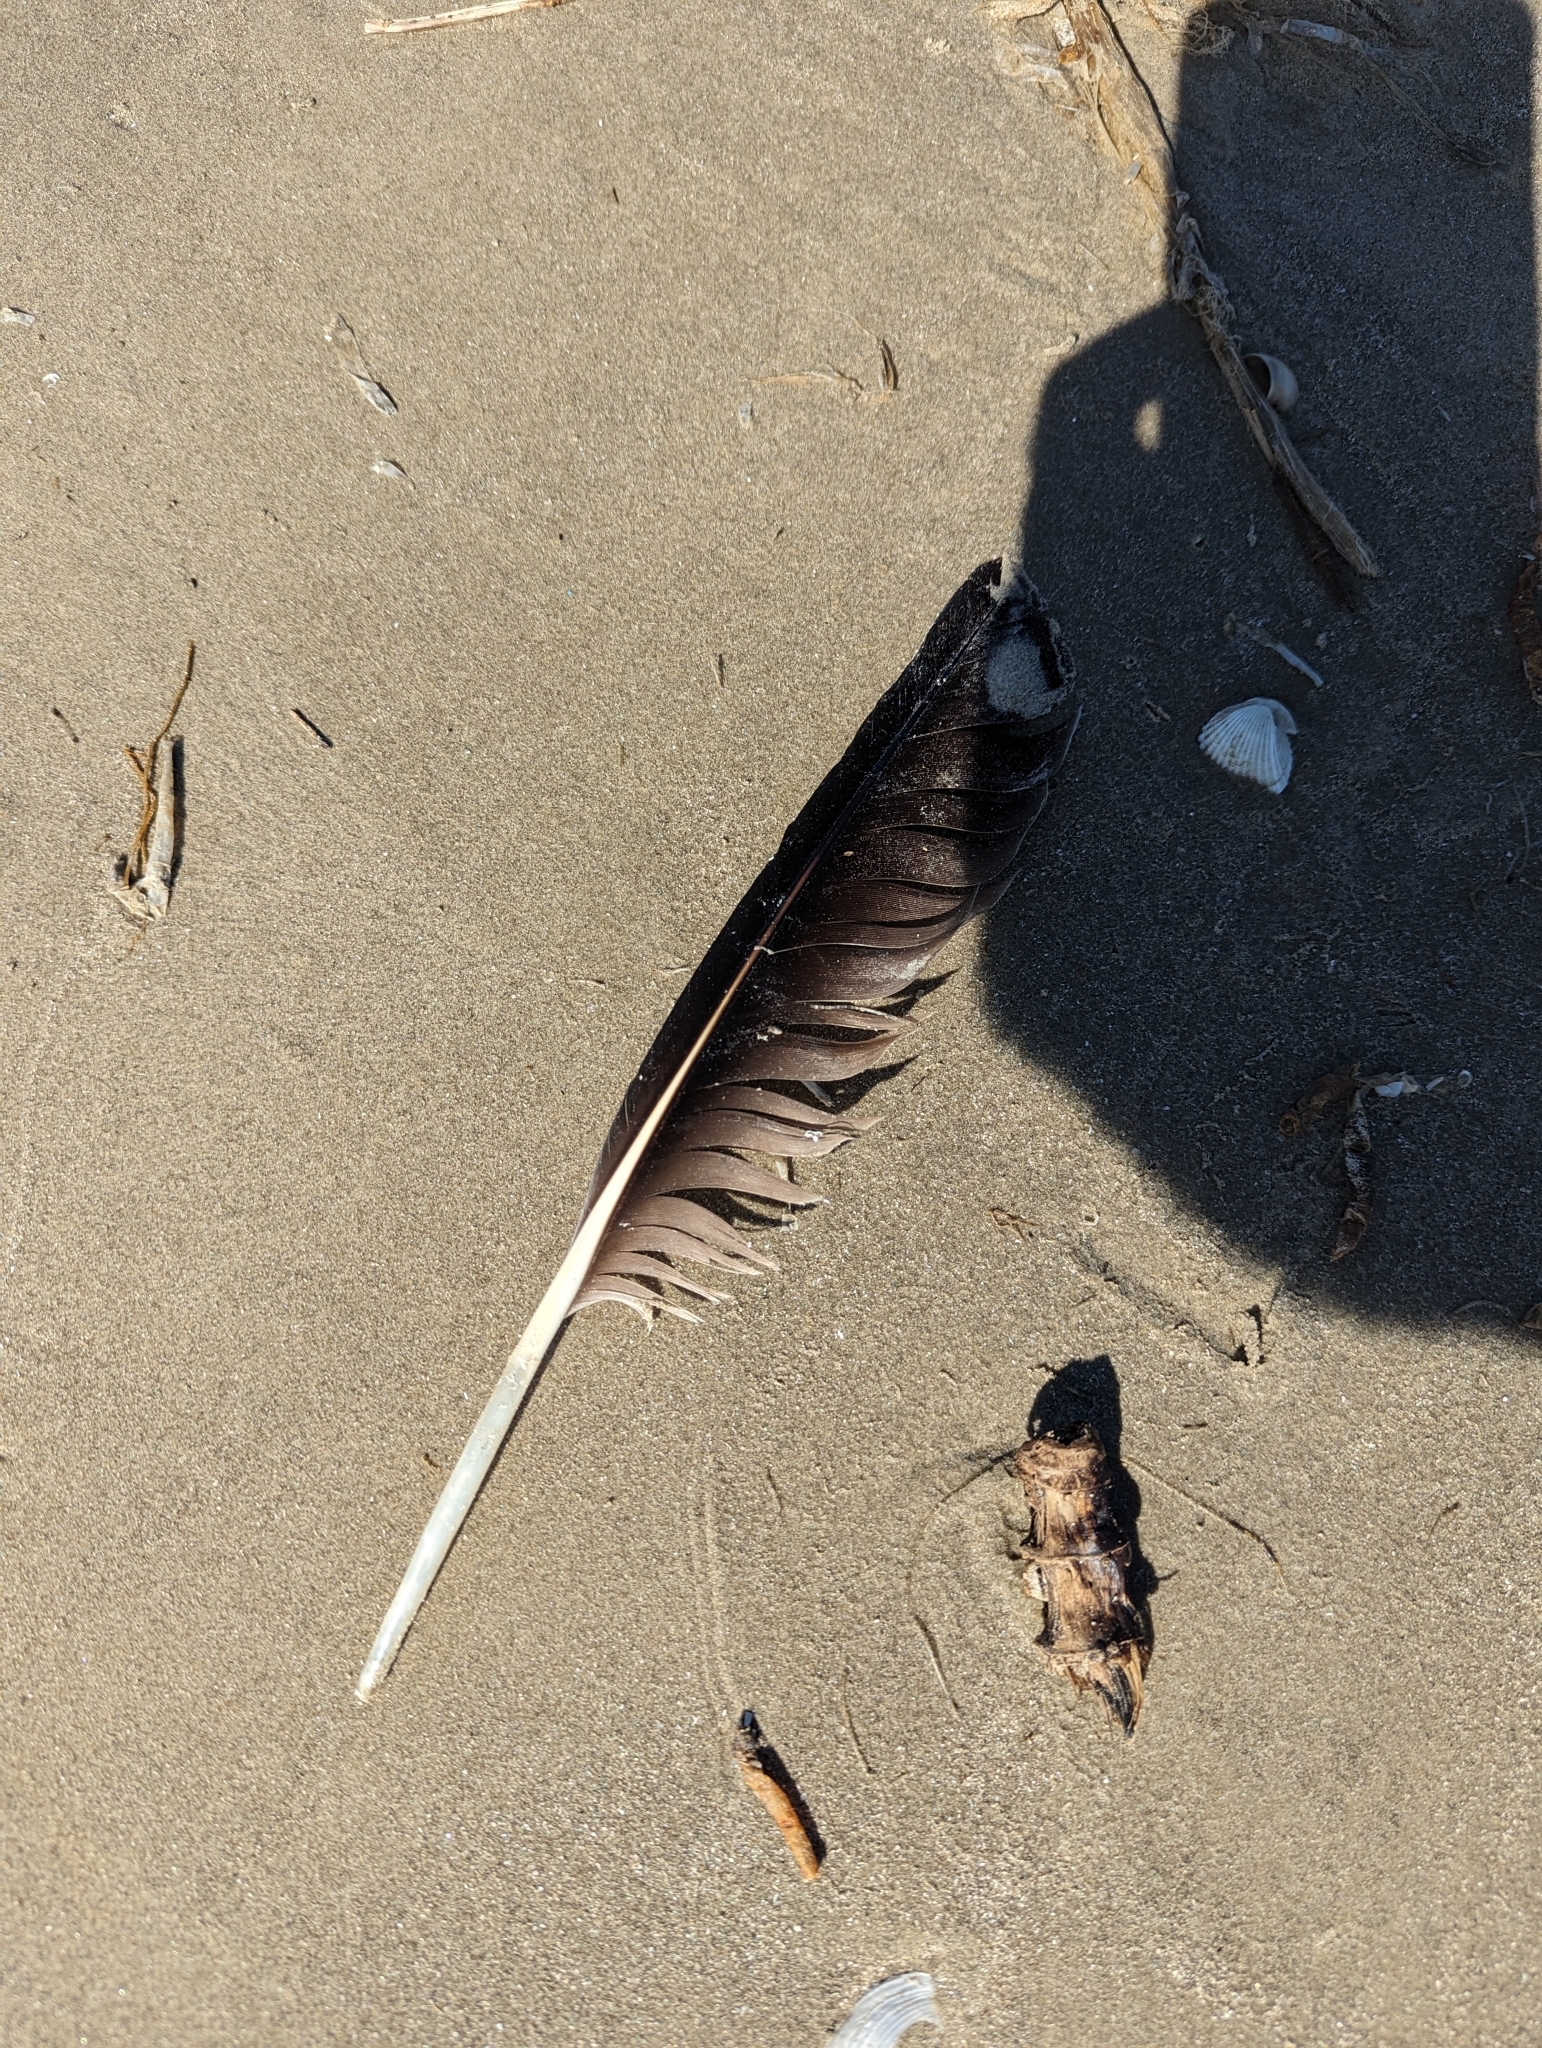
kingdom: Animalia
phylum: Chordata
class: Aves
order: Pelecaniformes
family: Pelecanidae
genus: Pelecanus
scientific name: Pelecanus occidentalis
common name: Brown pelican
